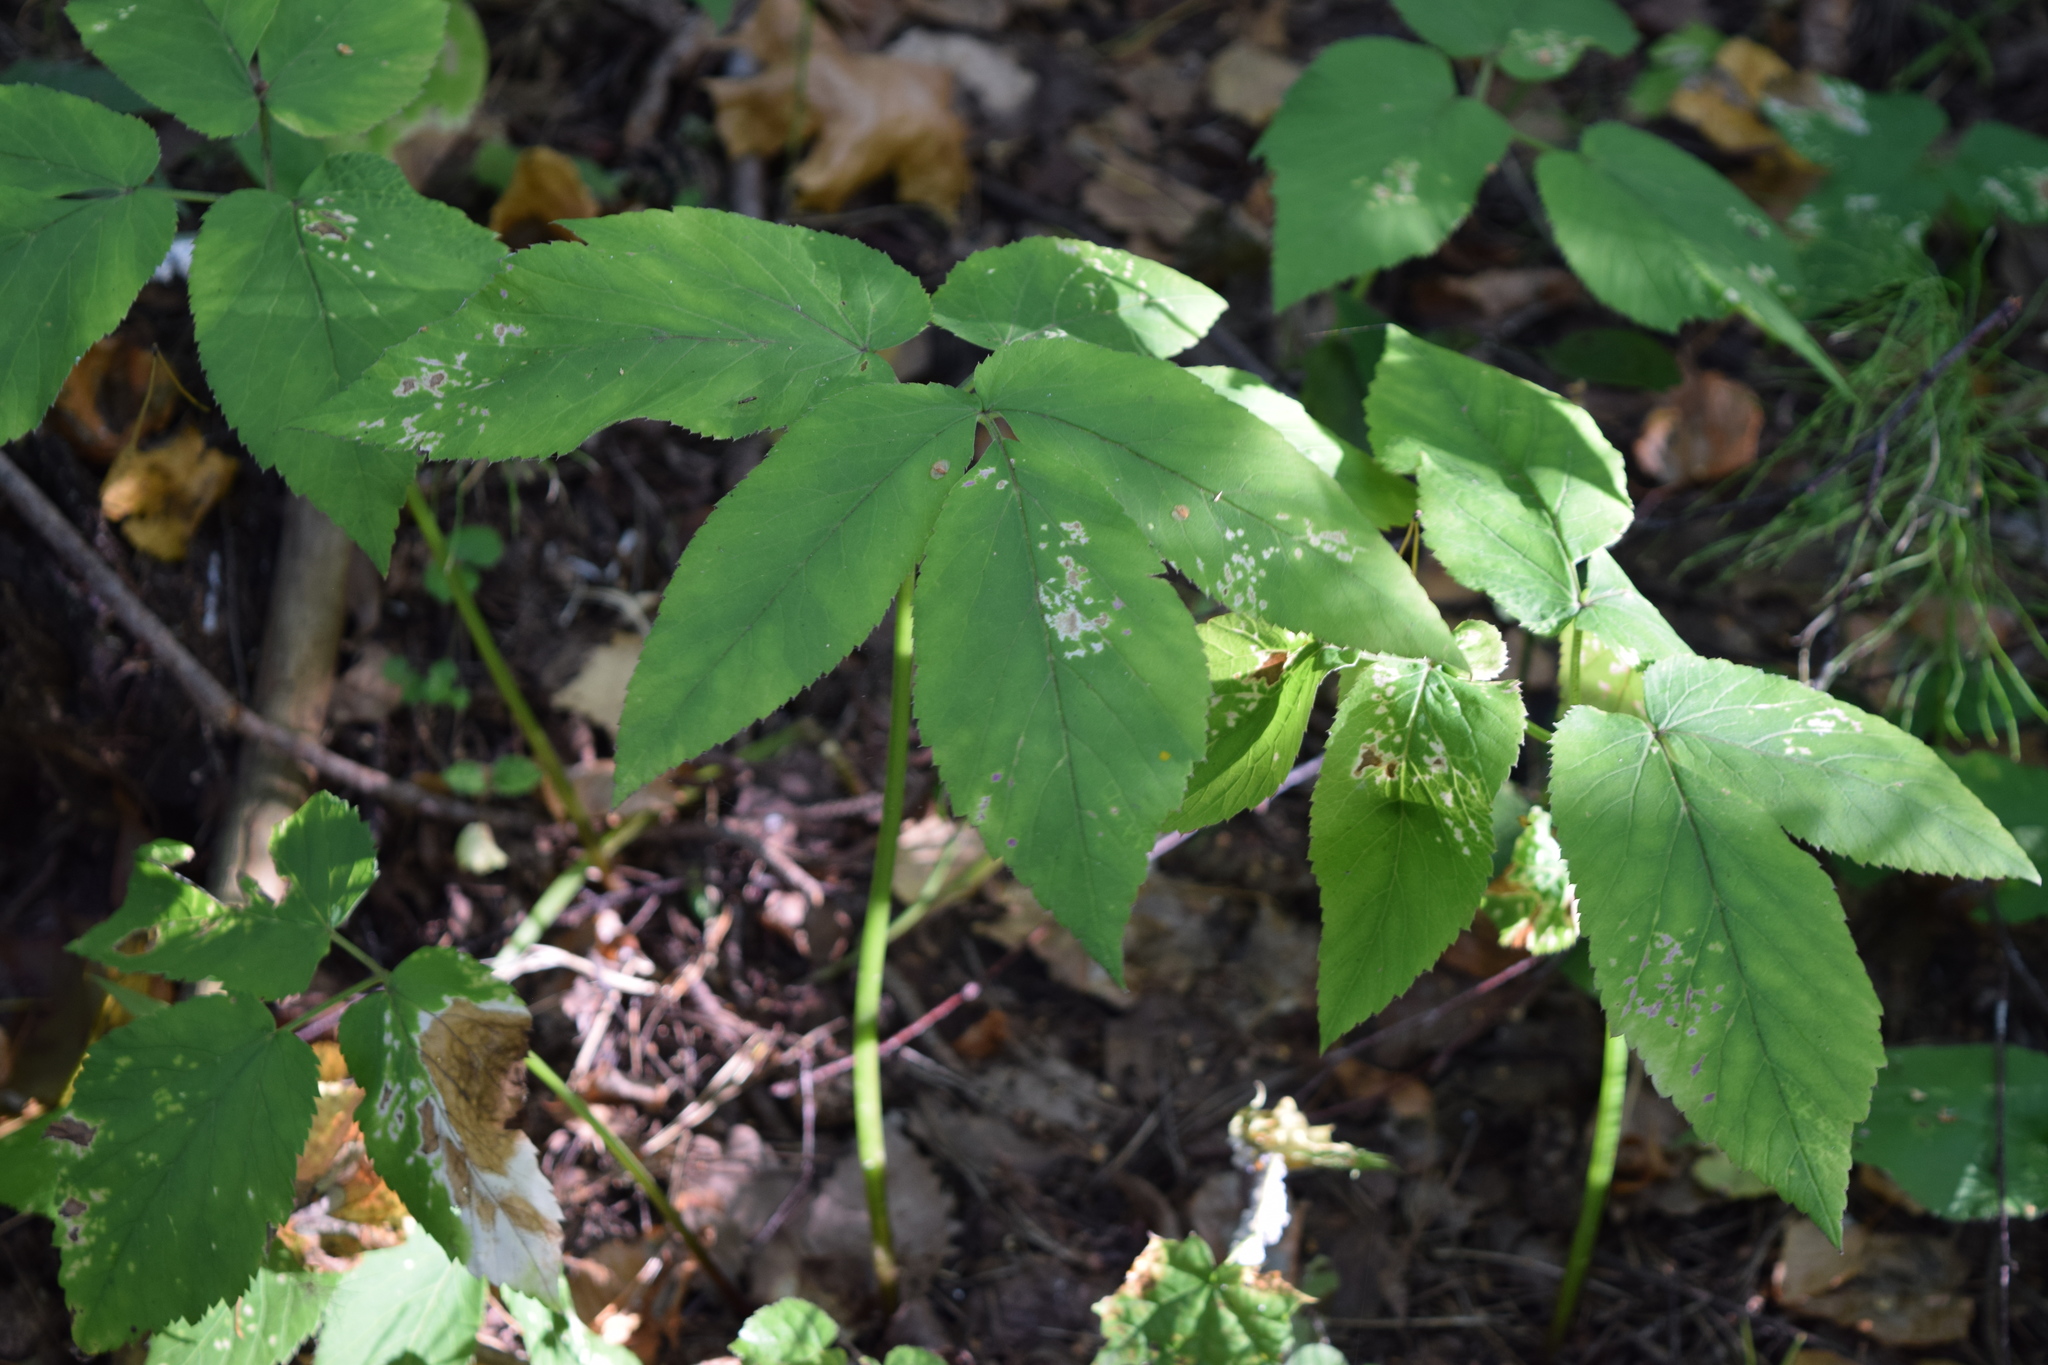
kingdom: Plantae
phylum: Tracheophyta
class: Magnoliopsida
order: Apiales
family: Apiaceae
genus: Aegopodium
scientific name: Aegopodium podagraria
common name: Ground-elder
